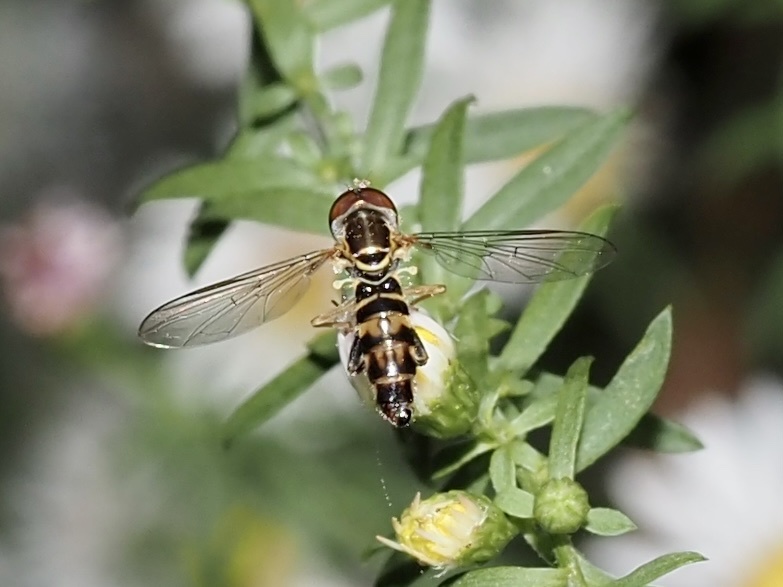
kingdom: Animalia
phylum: Arthropoda
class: Insecta
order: Diptera
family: Syrphidae
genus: Toxomerus
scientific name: Toxomerus geminatus
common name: Eastern calligrapher
